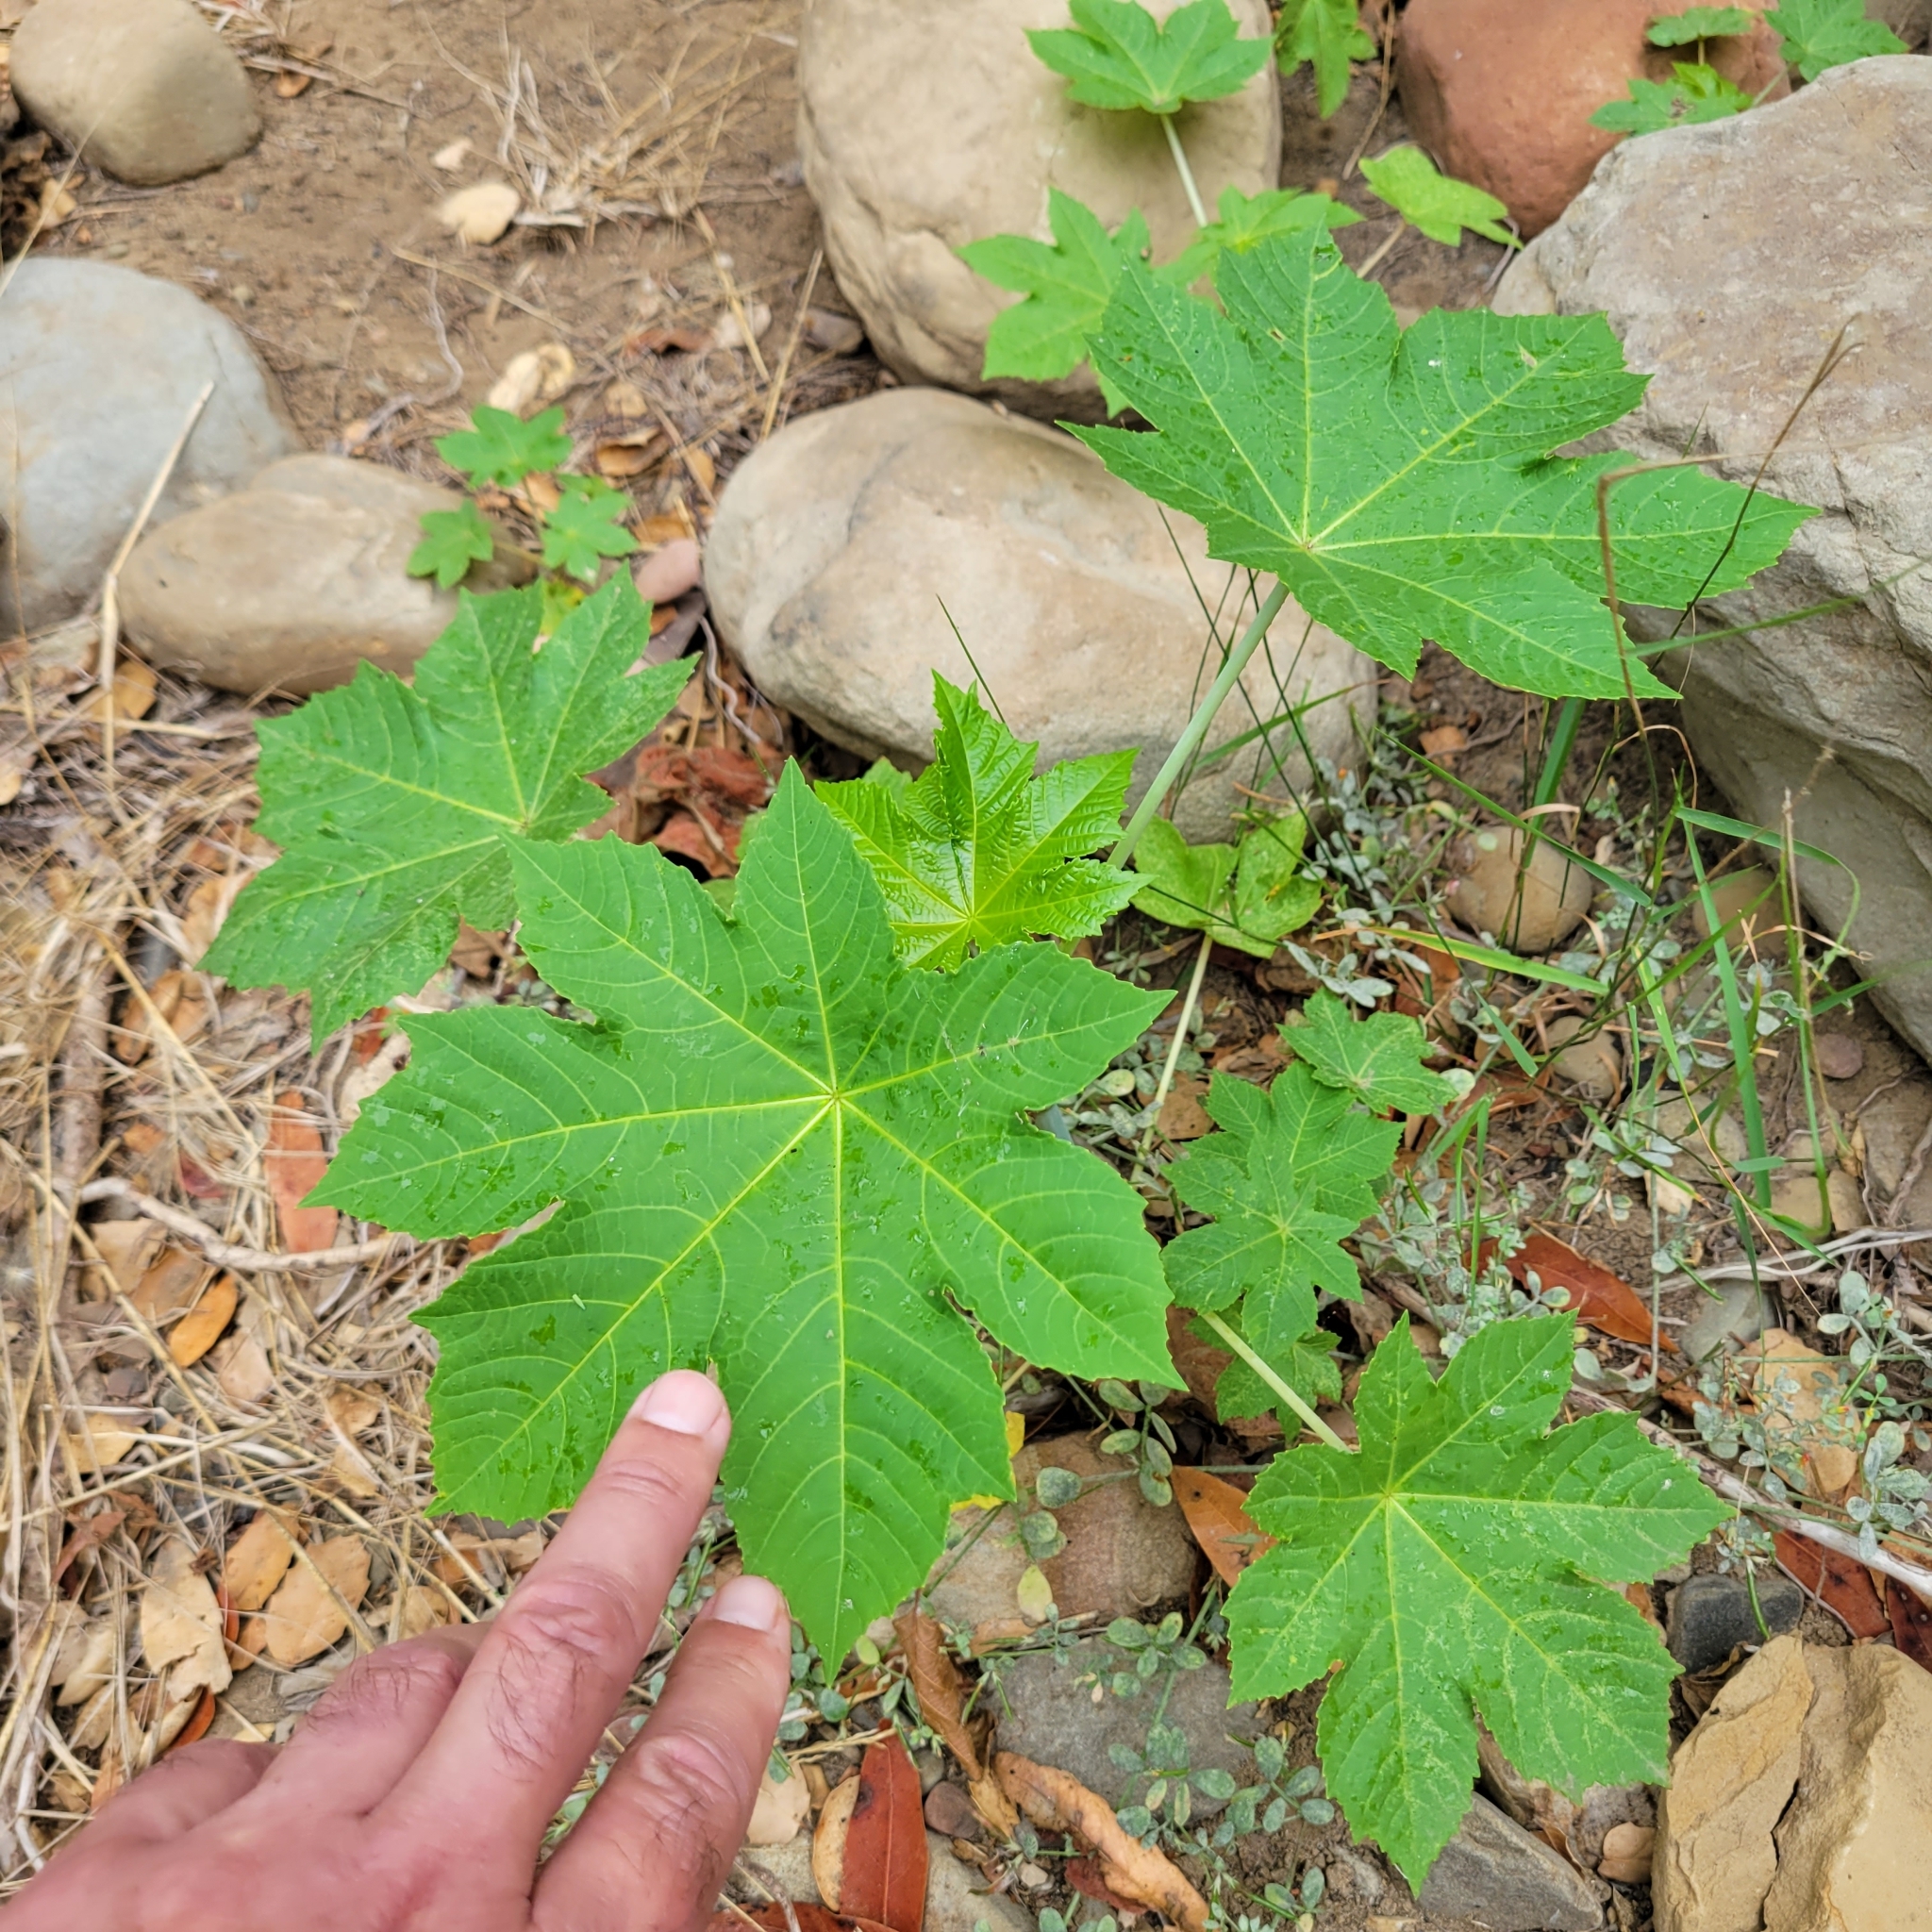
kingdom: Plantae
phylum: Tracheophyta
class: Magnoliopsida
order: Malpighiales
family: Euphorbiaceae
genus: Ricinus
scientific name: Ricinus communis
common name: Castor-oil-plant
